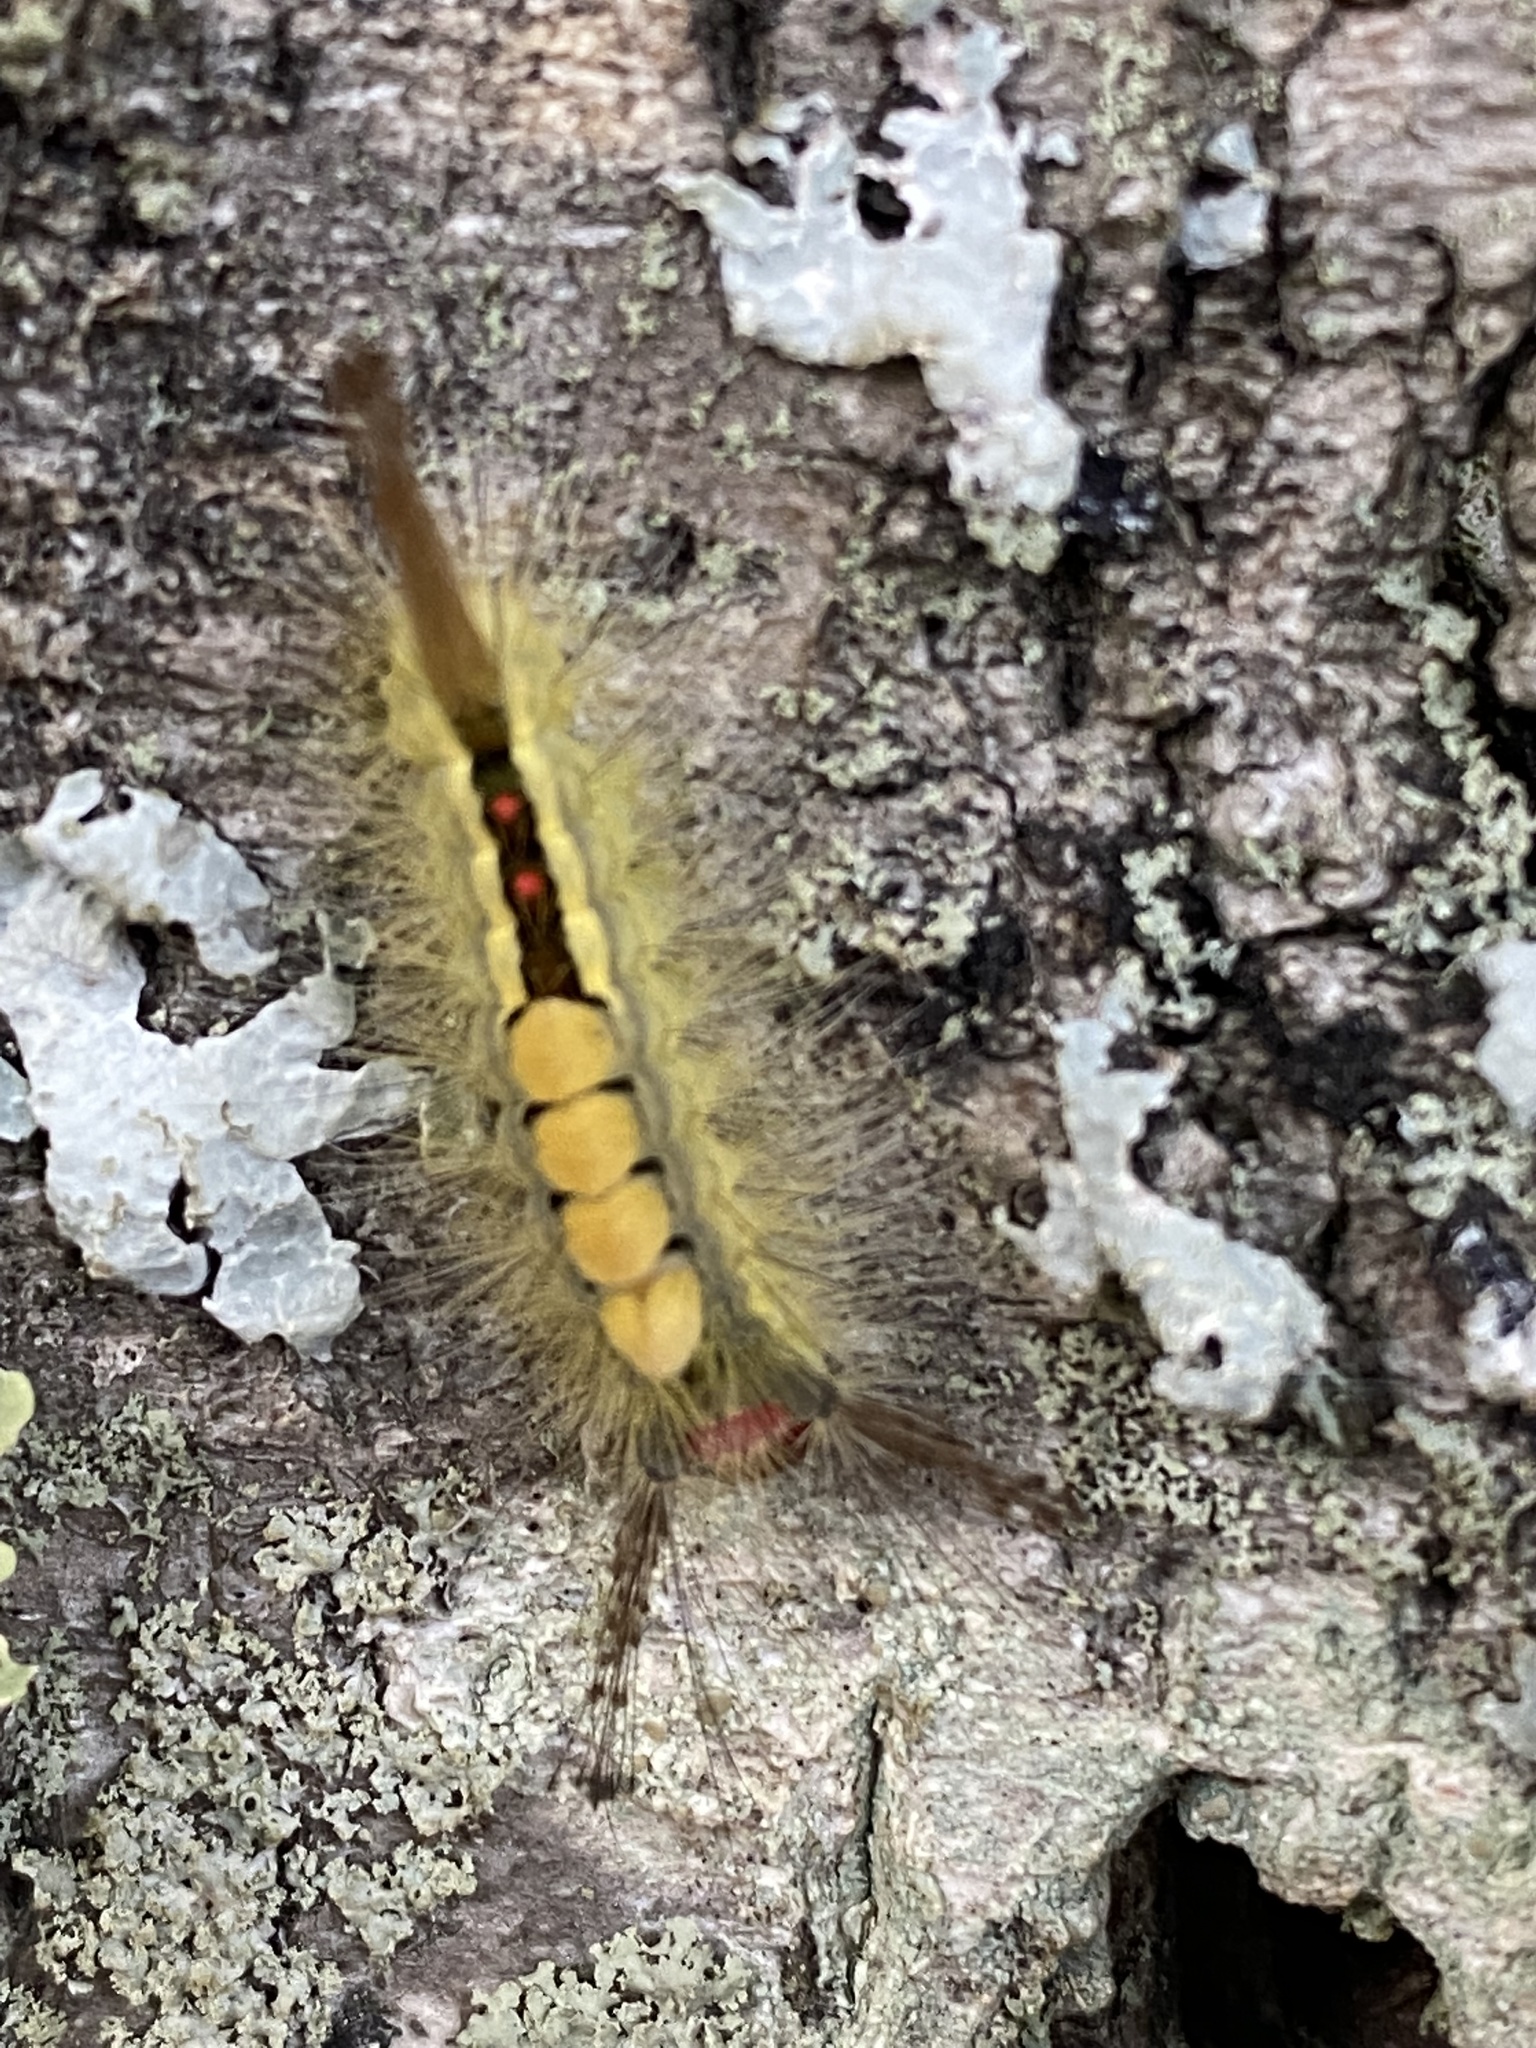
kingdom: Animalia
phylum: Arthropoda
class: Insecta
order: Lepidoptera
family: Erebidae
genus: Orgyia
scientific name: Orgyia leucostigma
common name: White-marked tussock moth
